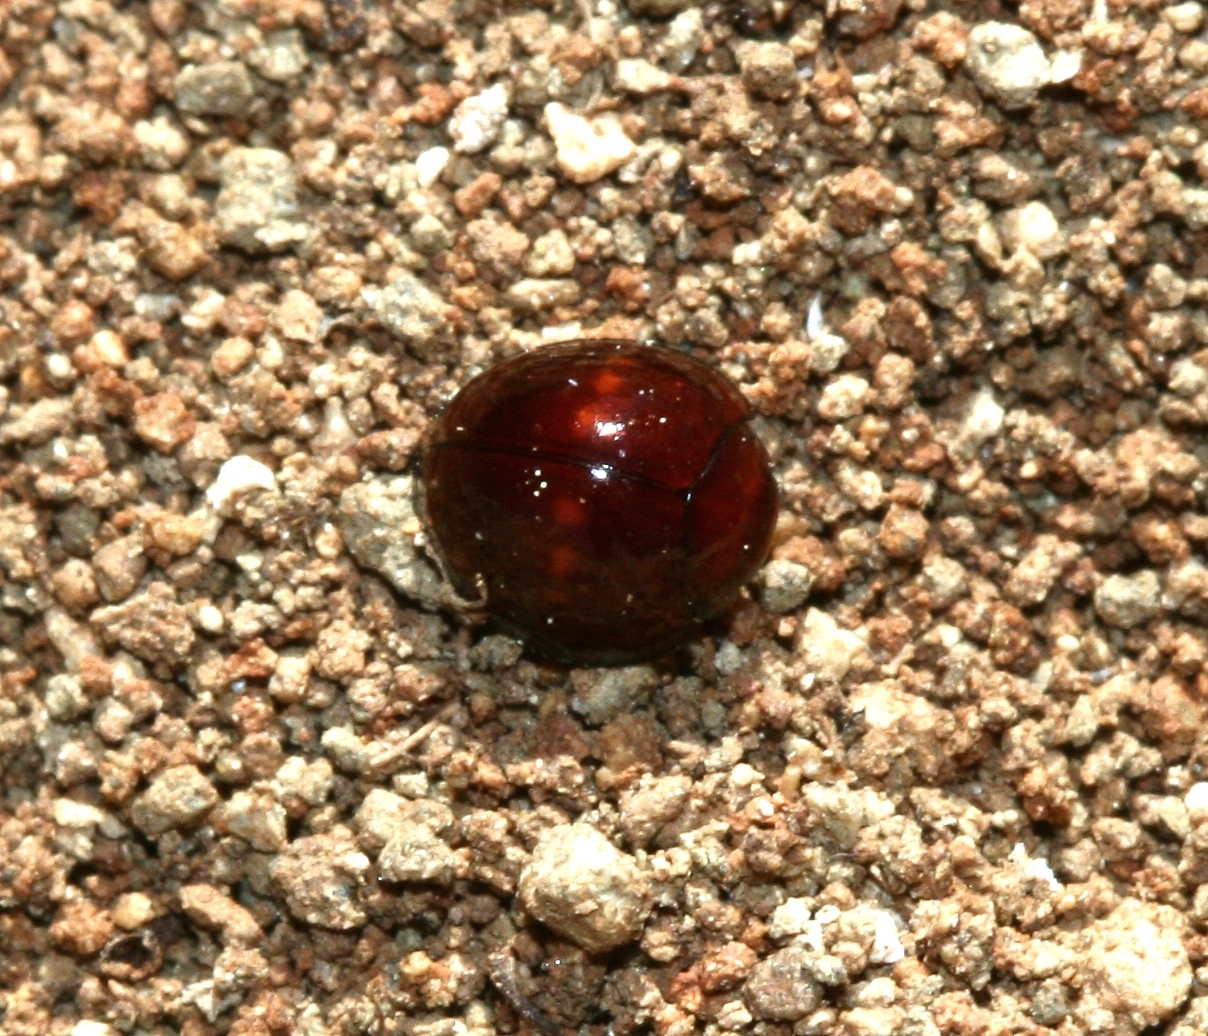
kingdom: Animalia
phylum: Arthropoda
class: Insecta
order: Coleoptera
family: Coccinellidae
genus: Chilocorus
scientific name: Chilocorus bipustulatus
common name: Heather ladybird
